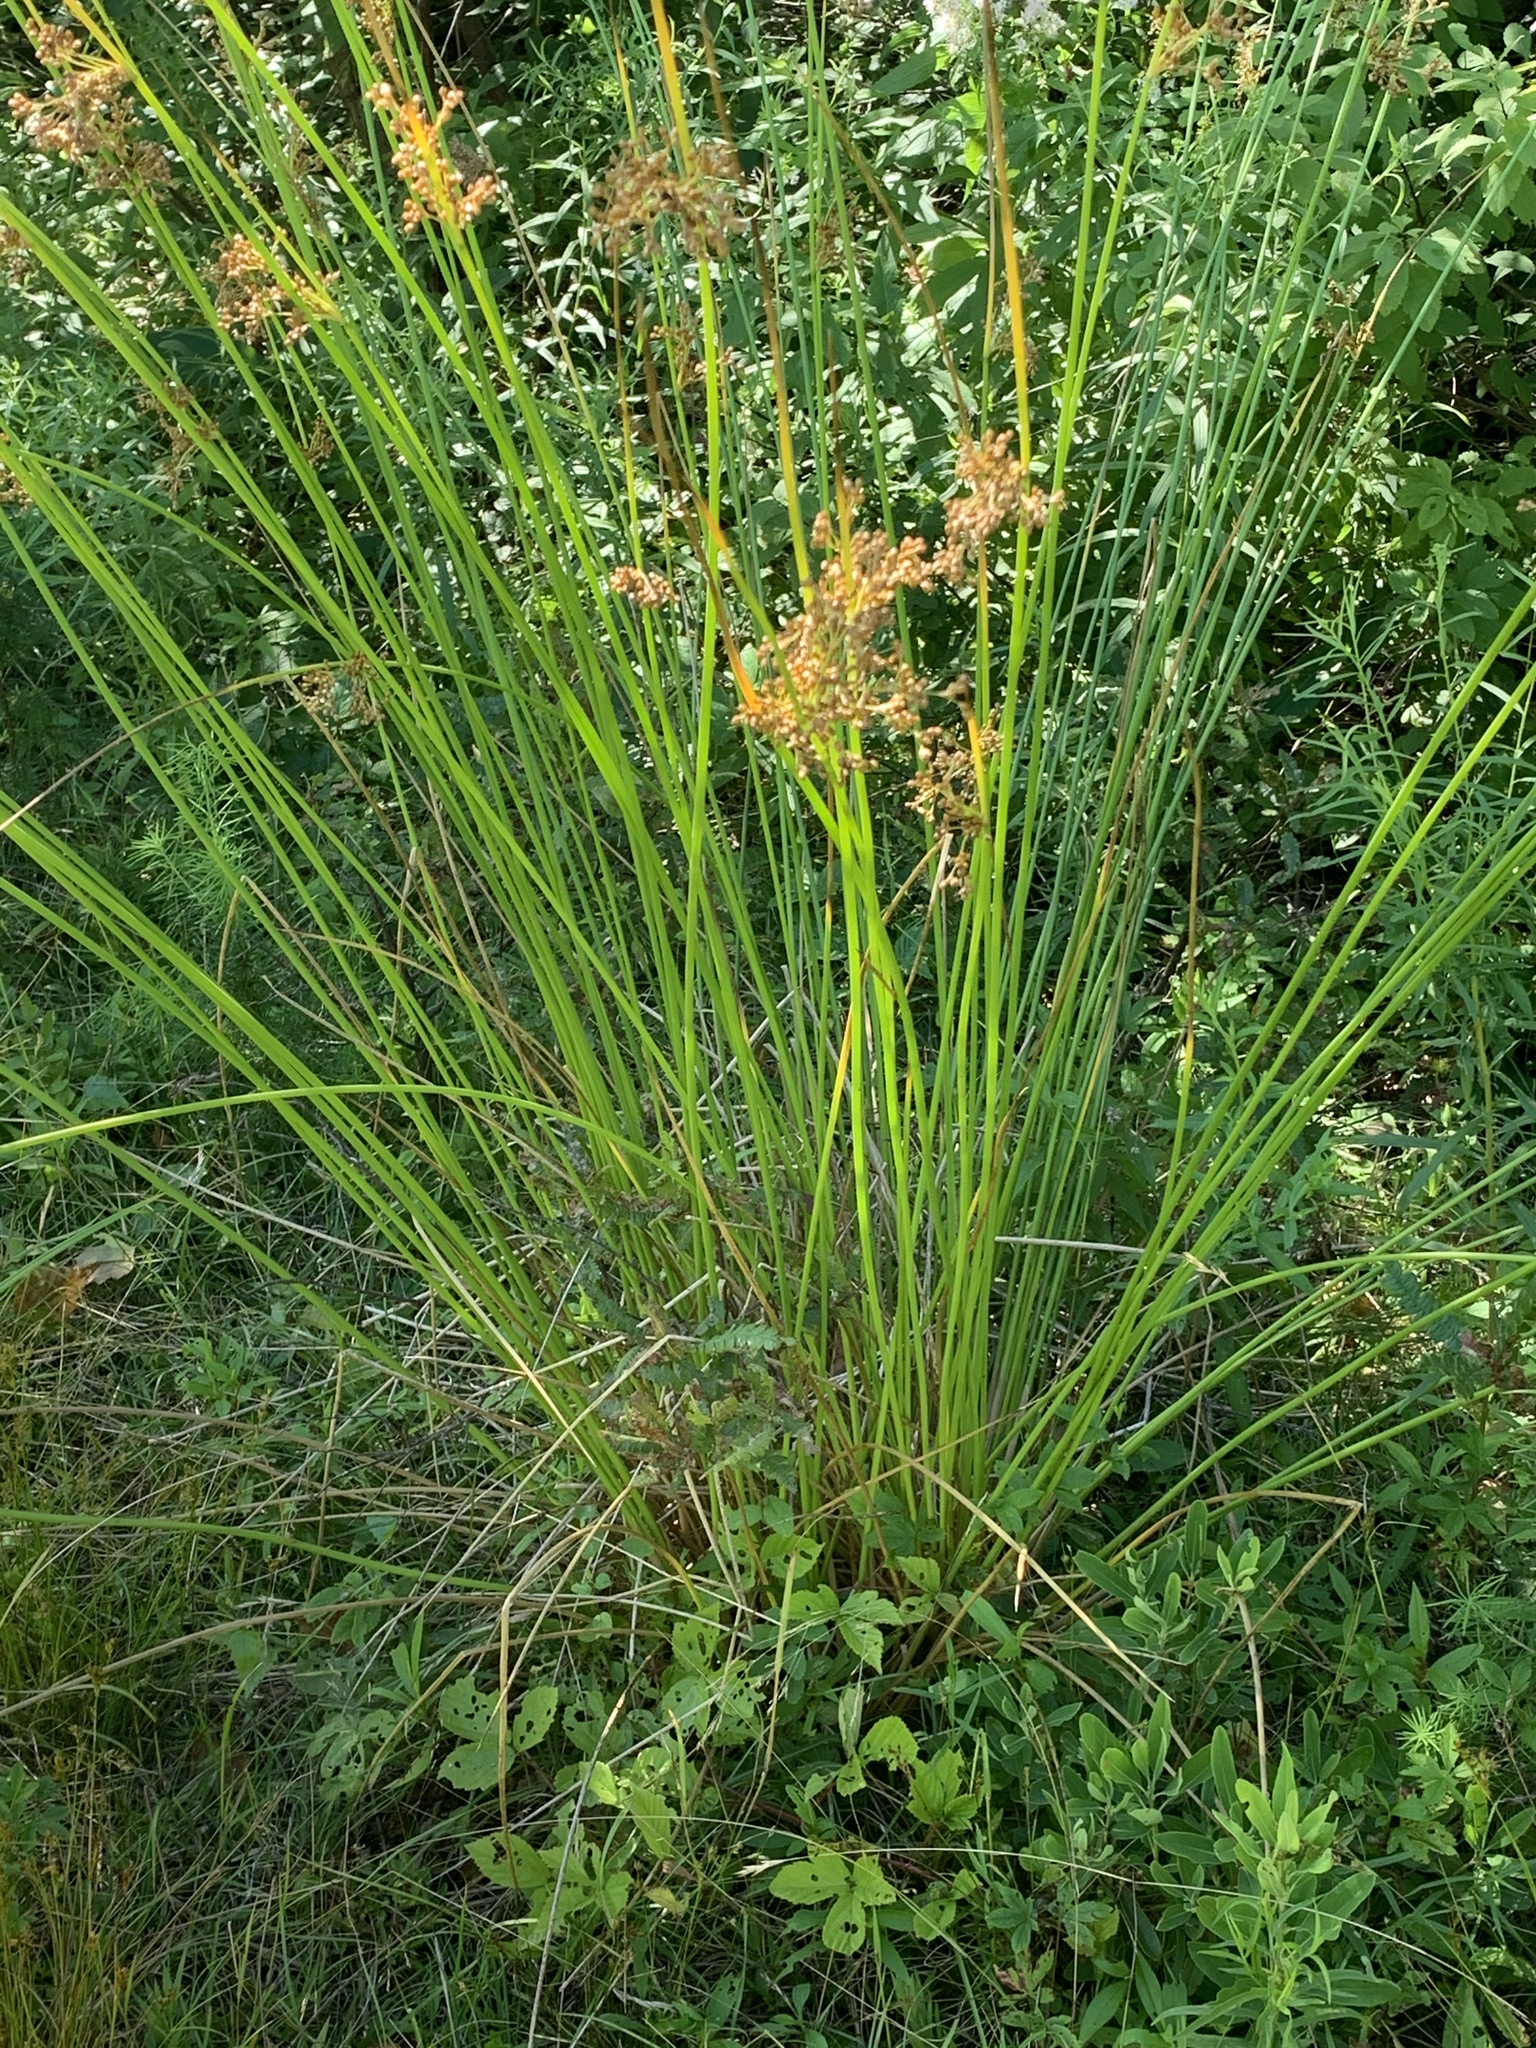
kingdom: Plantae
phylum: Tracheophyta
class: Liliopsida
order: Poales
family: Juncaceae
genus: Juncus
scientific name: Juncus effusus
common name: Soft rush
